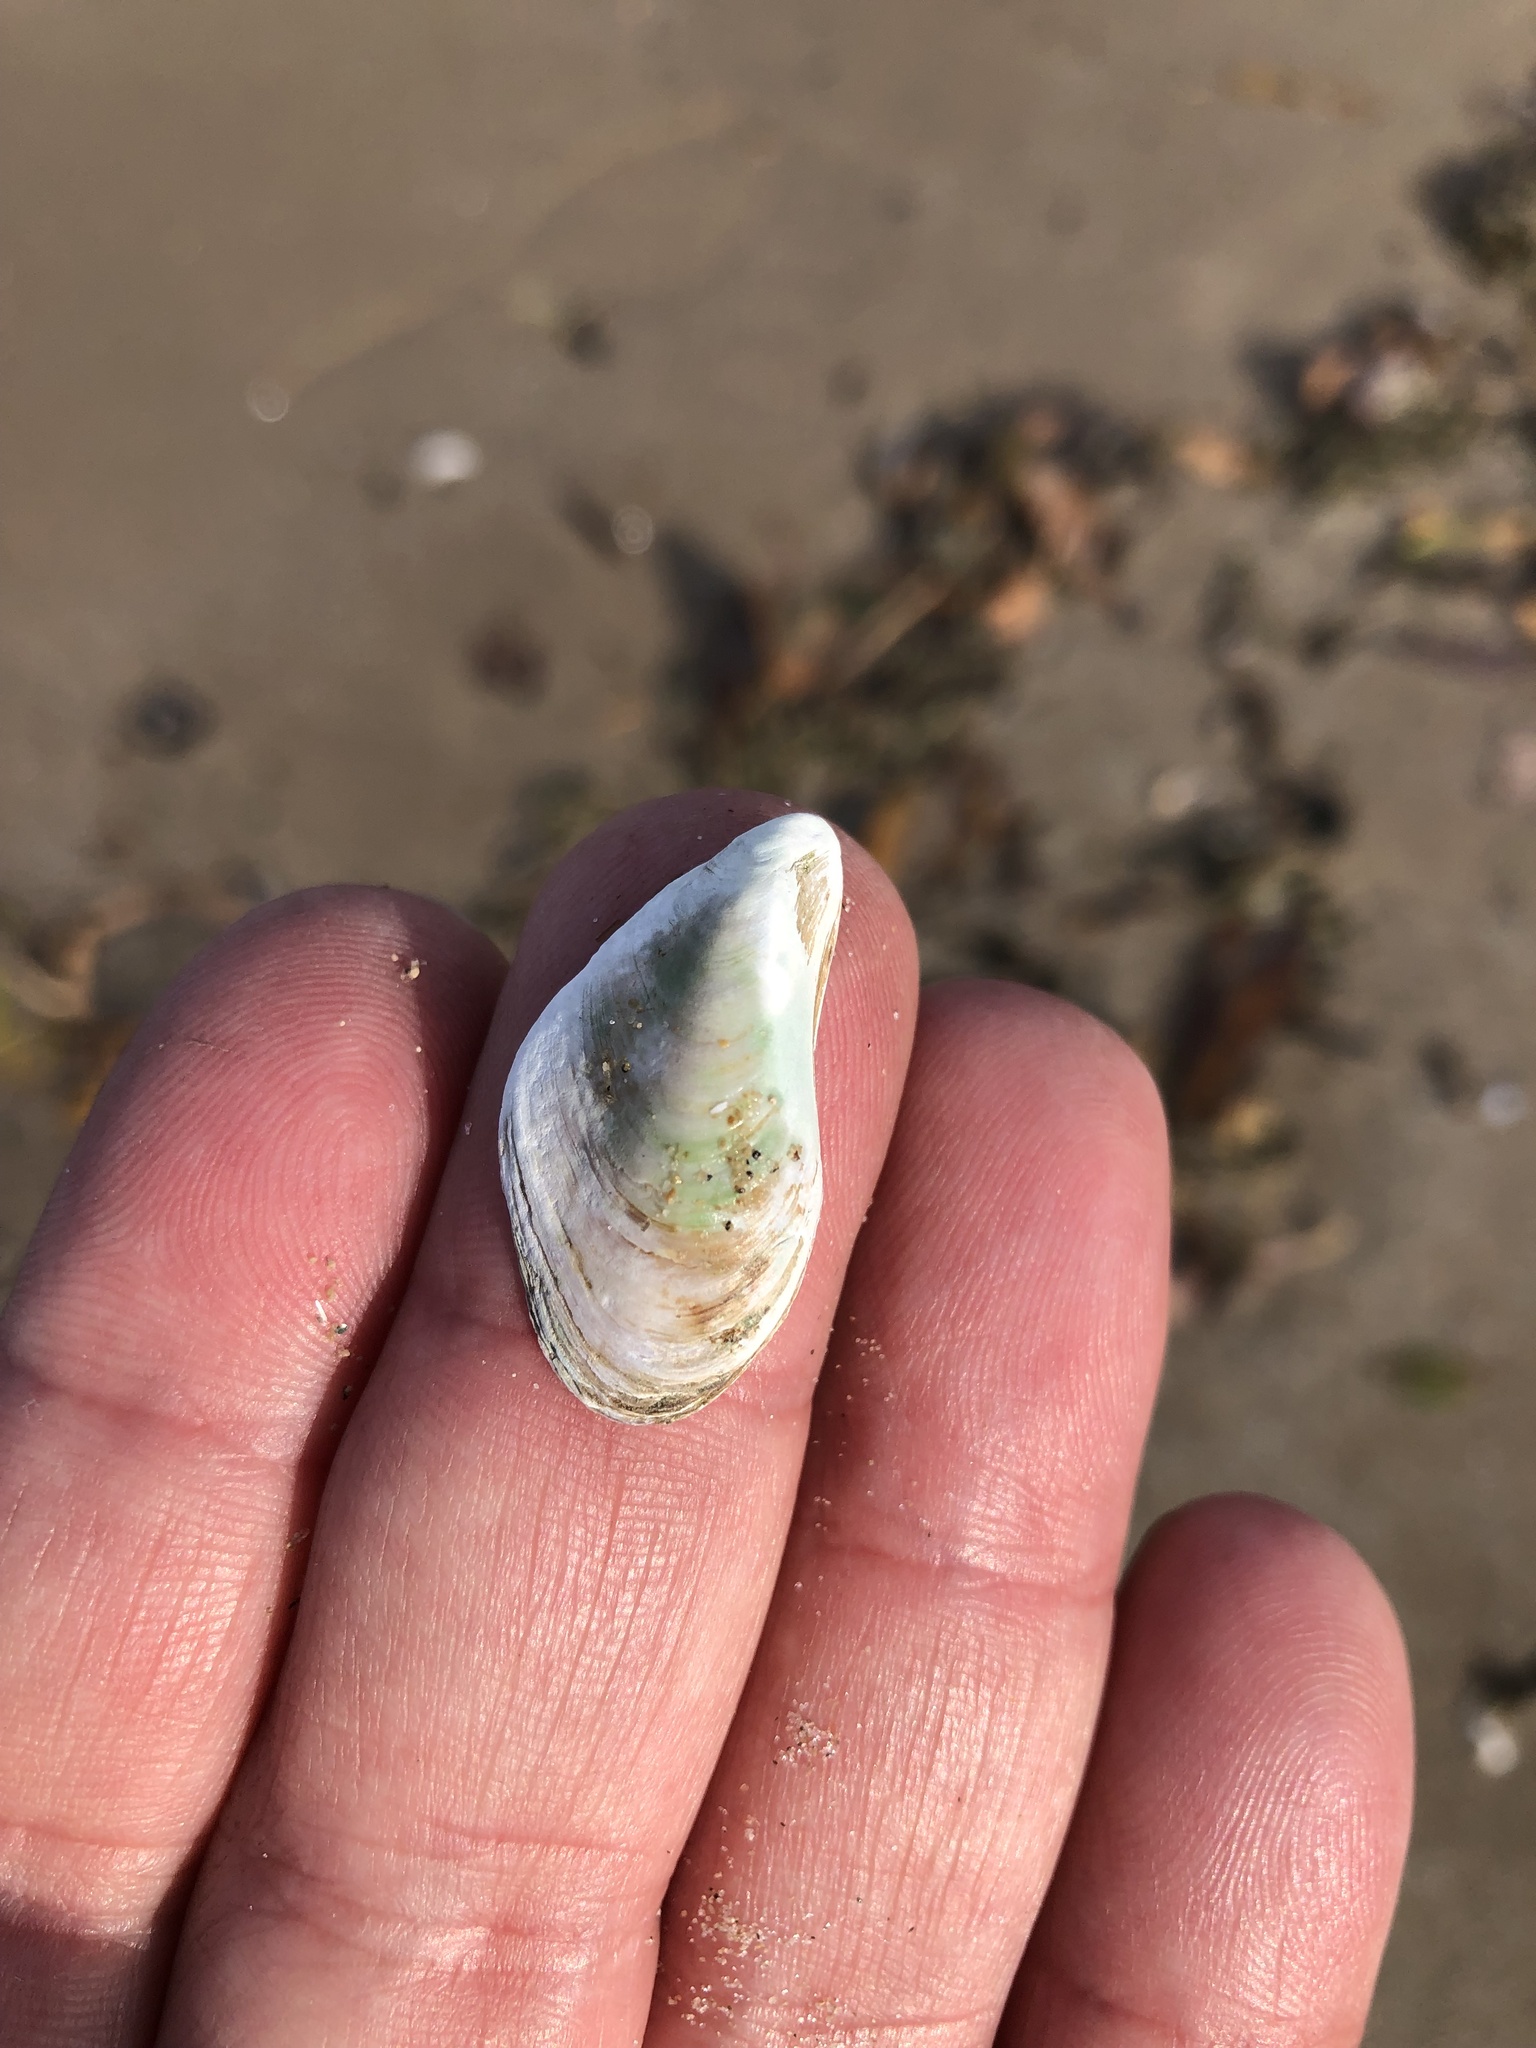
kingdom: Animalia
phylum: Mollusca
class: Bivalvia
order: Myida
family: Dreissenidae
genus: Dreissena
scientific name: Dreissena bugensis
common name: Quagga mussel
